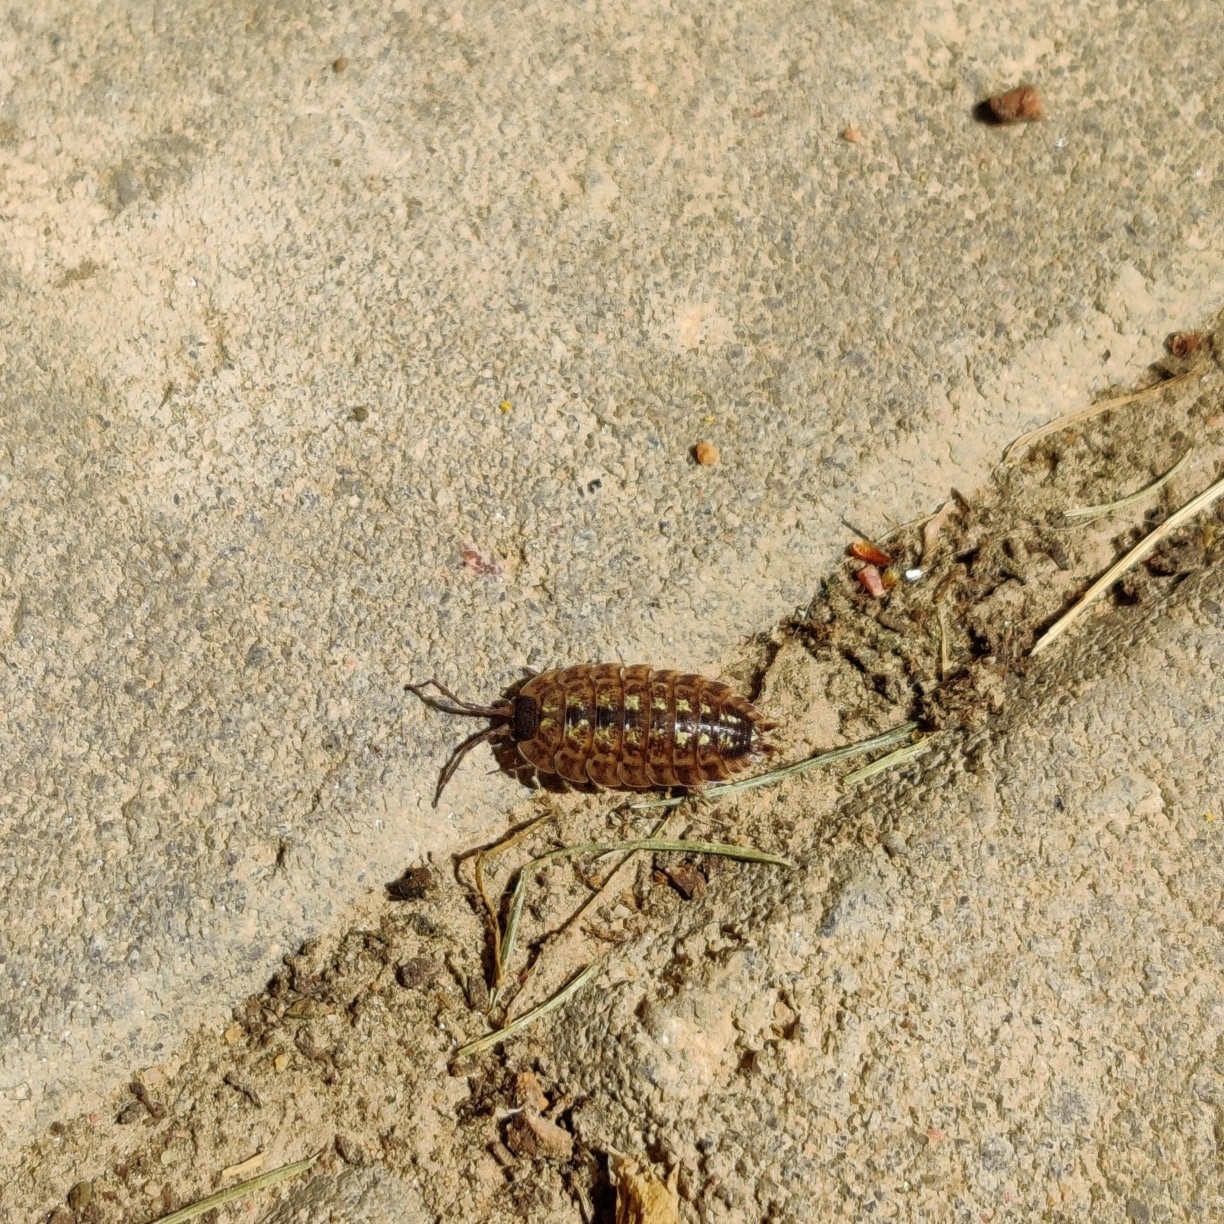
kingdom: Animalia
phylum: Arthropoda
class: Malacostraca
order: Isopoda
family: Porcellionidae
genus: Porcellio
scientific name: Porcellio spinicornis
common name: Painted woodlouse
